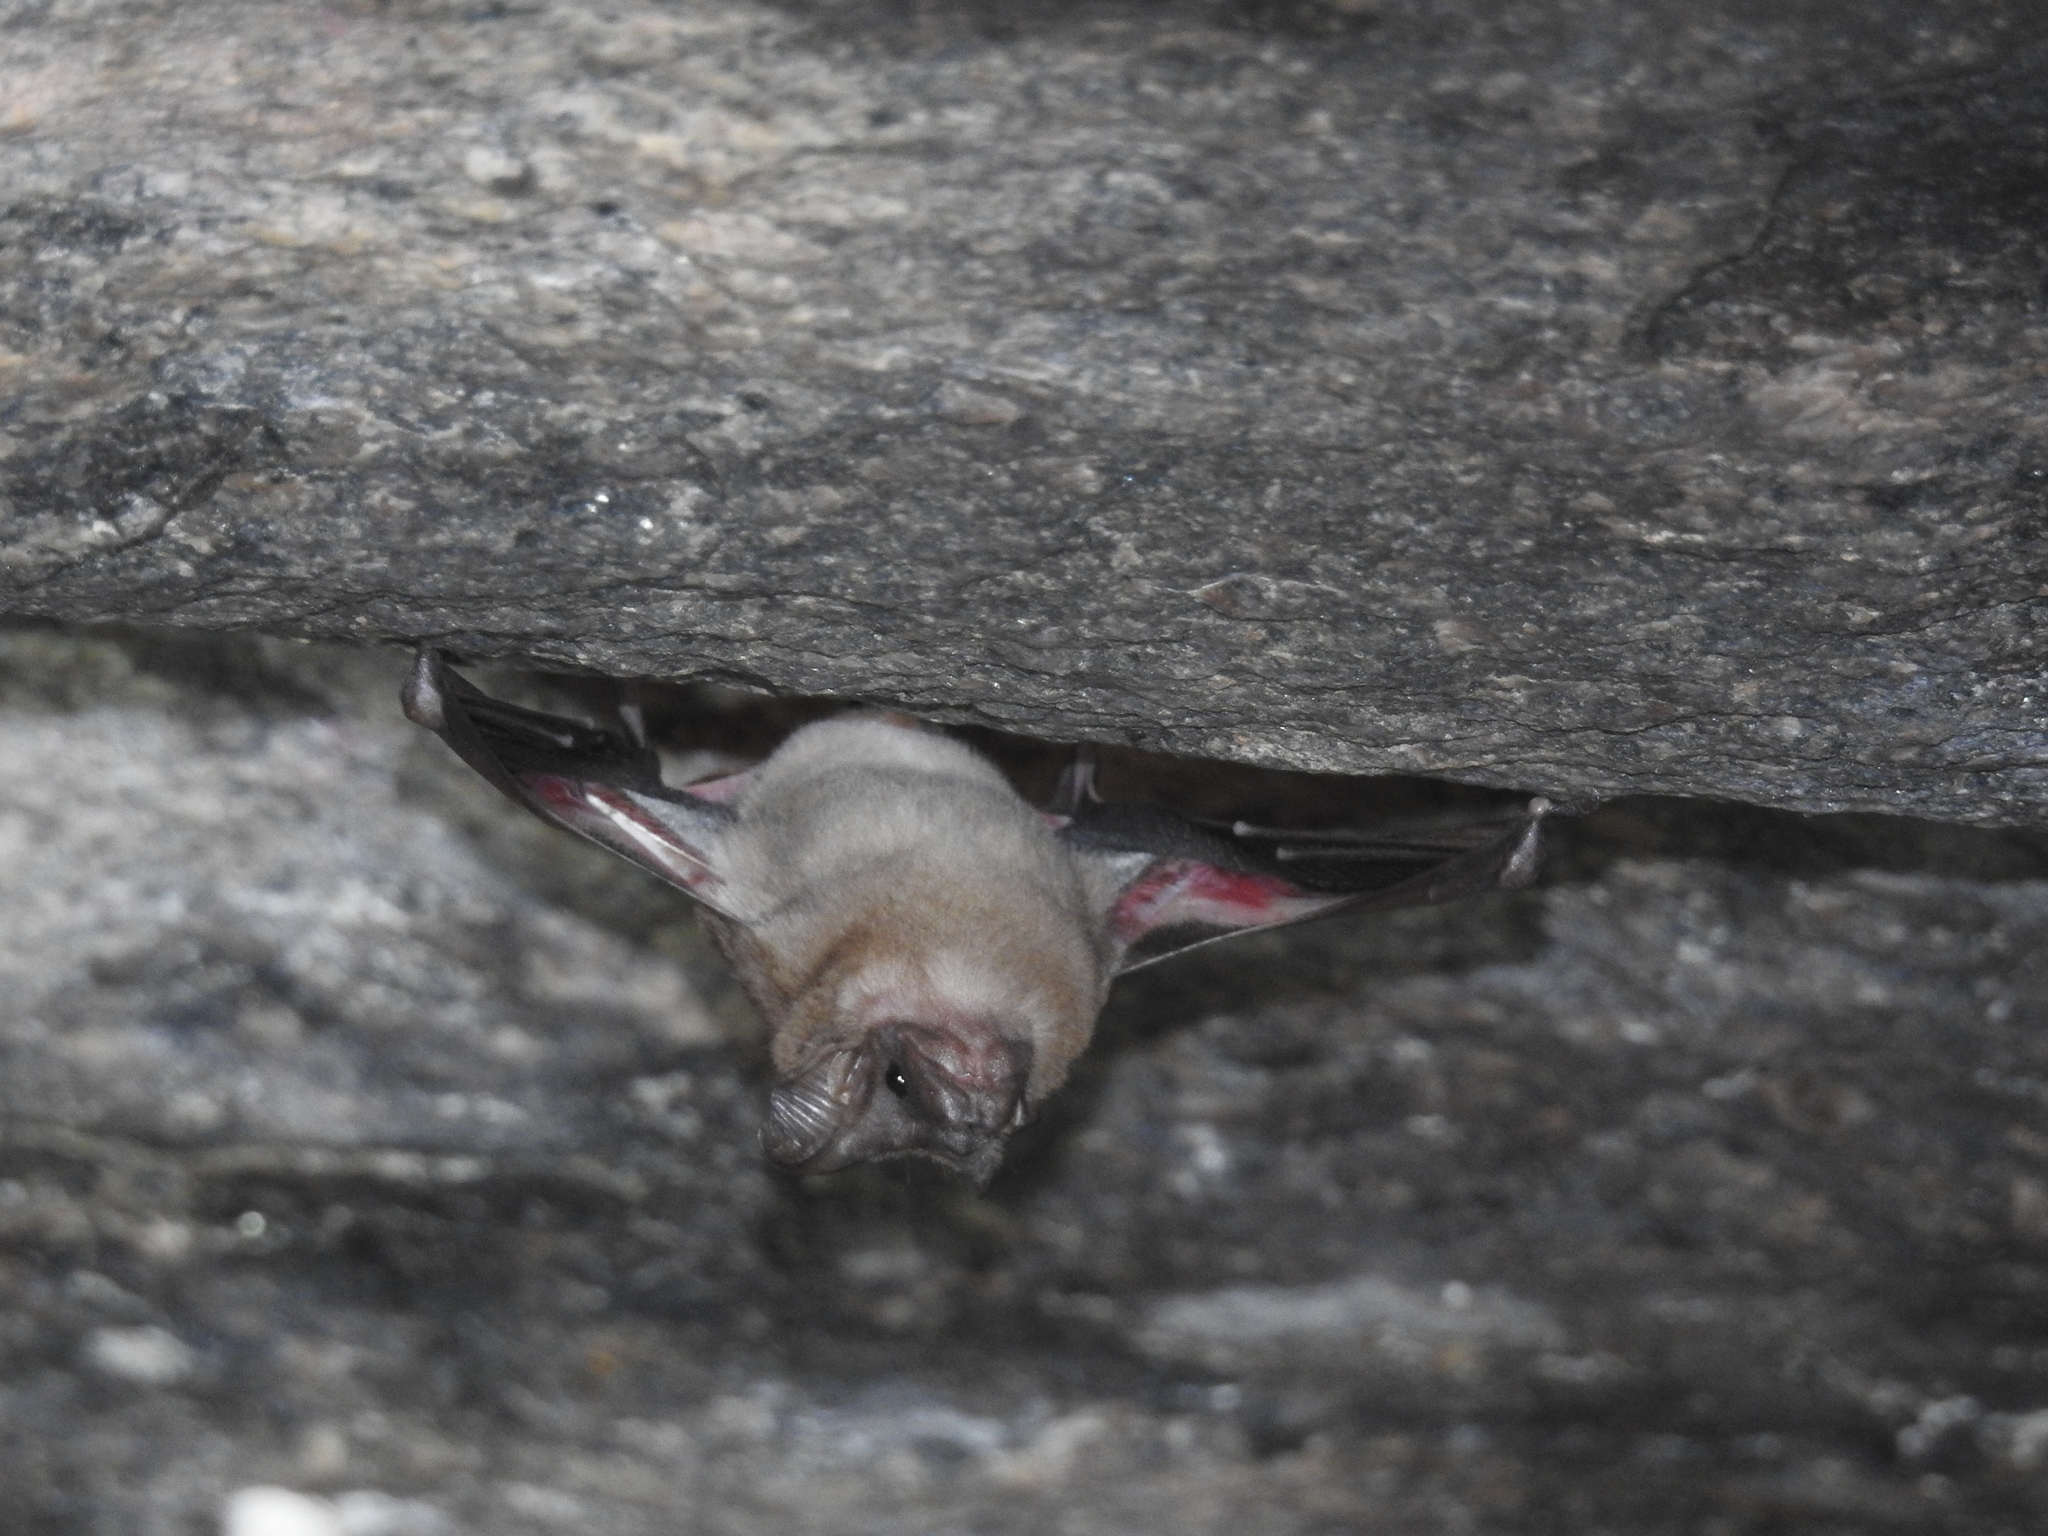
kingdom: Animalia
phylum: Chordata
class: Mammalia
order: Chiroptera
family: Rhinopomatidae
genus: Rhinopoma
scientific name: Rhinopoma hardwickii
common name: Lesser mouse-tailed bat
